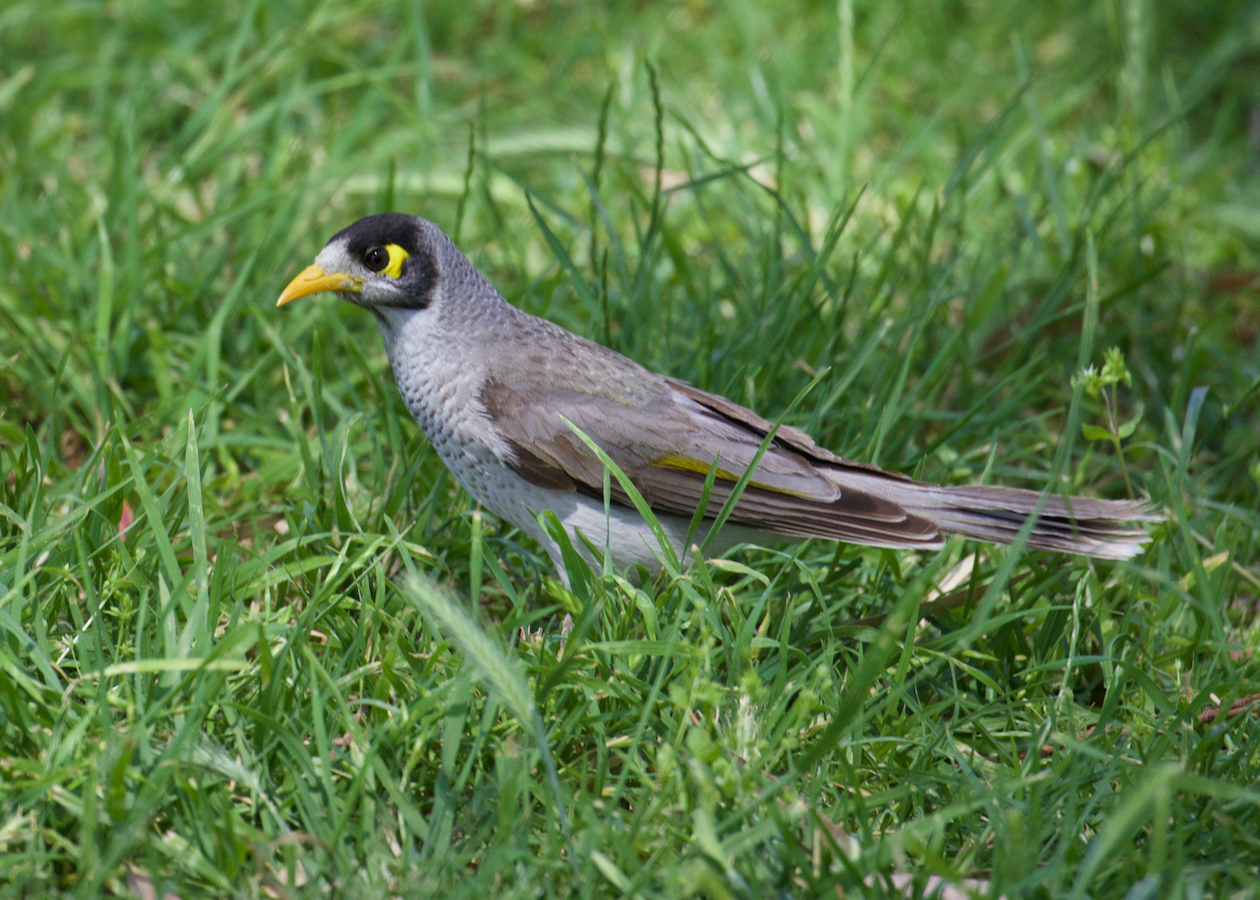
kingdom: Animalia
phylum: Chordata
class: Aves
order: Passeriformes
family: Meliphagidae
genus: Manorina
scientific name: Manorina melanocephala
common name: Noisy miner
